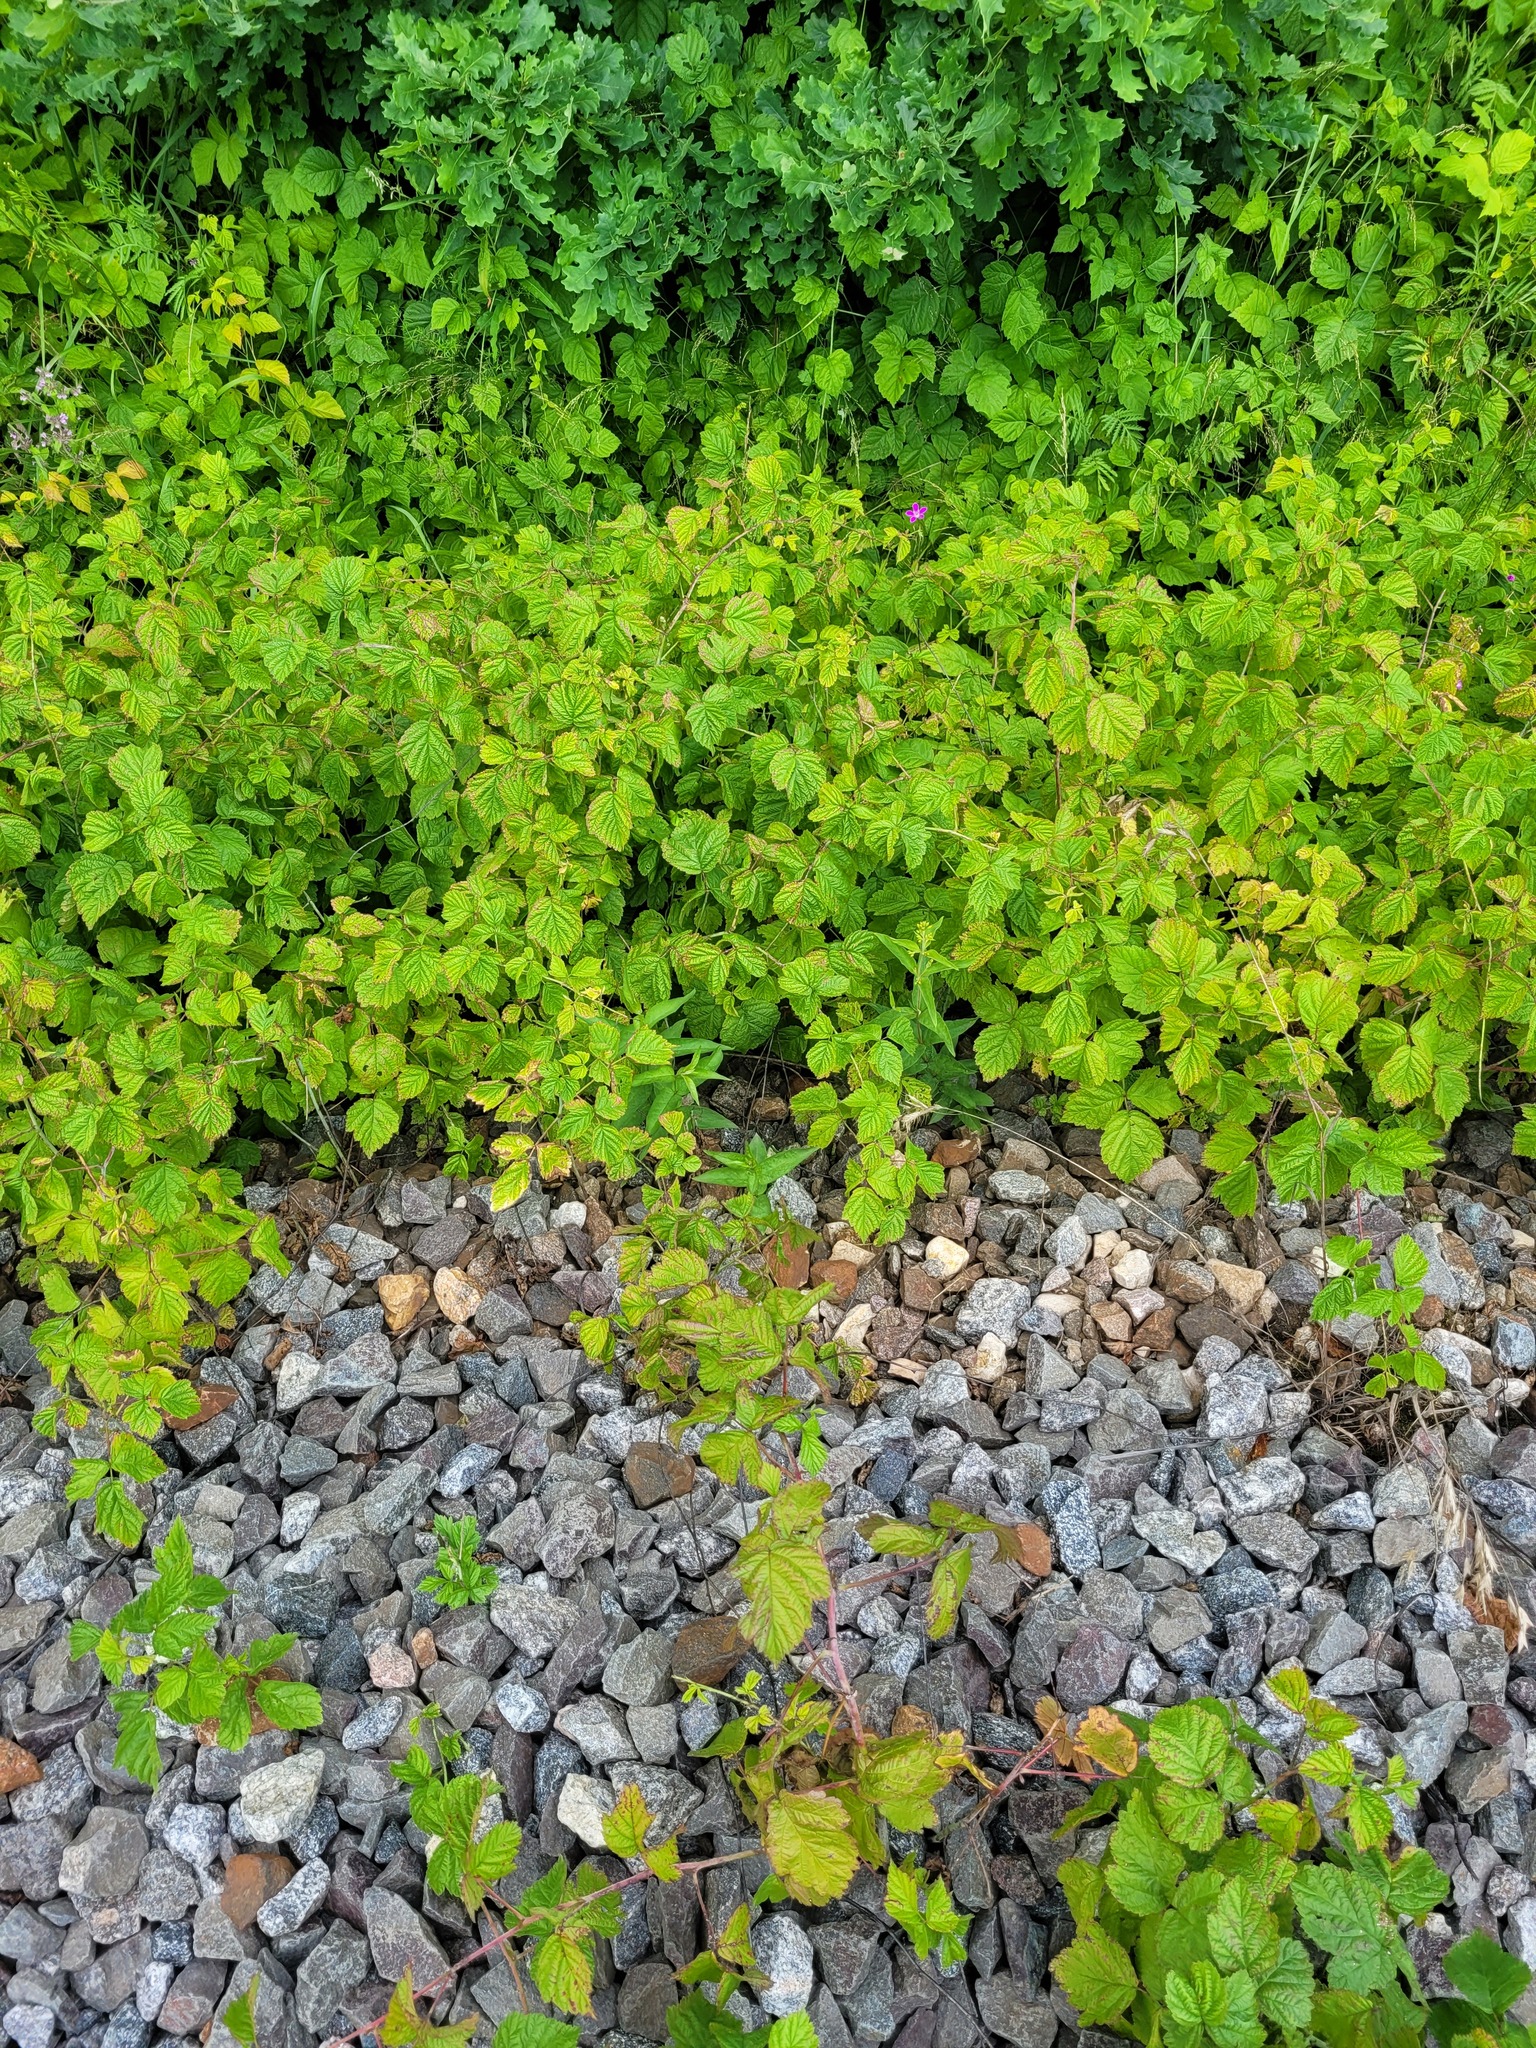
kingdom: Plantae
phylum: Tracheophyta
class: Magnoliopsida
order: Rosales
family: Rosaceae
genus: Rubus
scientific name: Rubus caesius
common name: Dewberry
